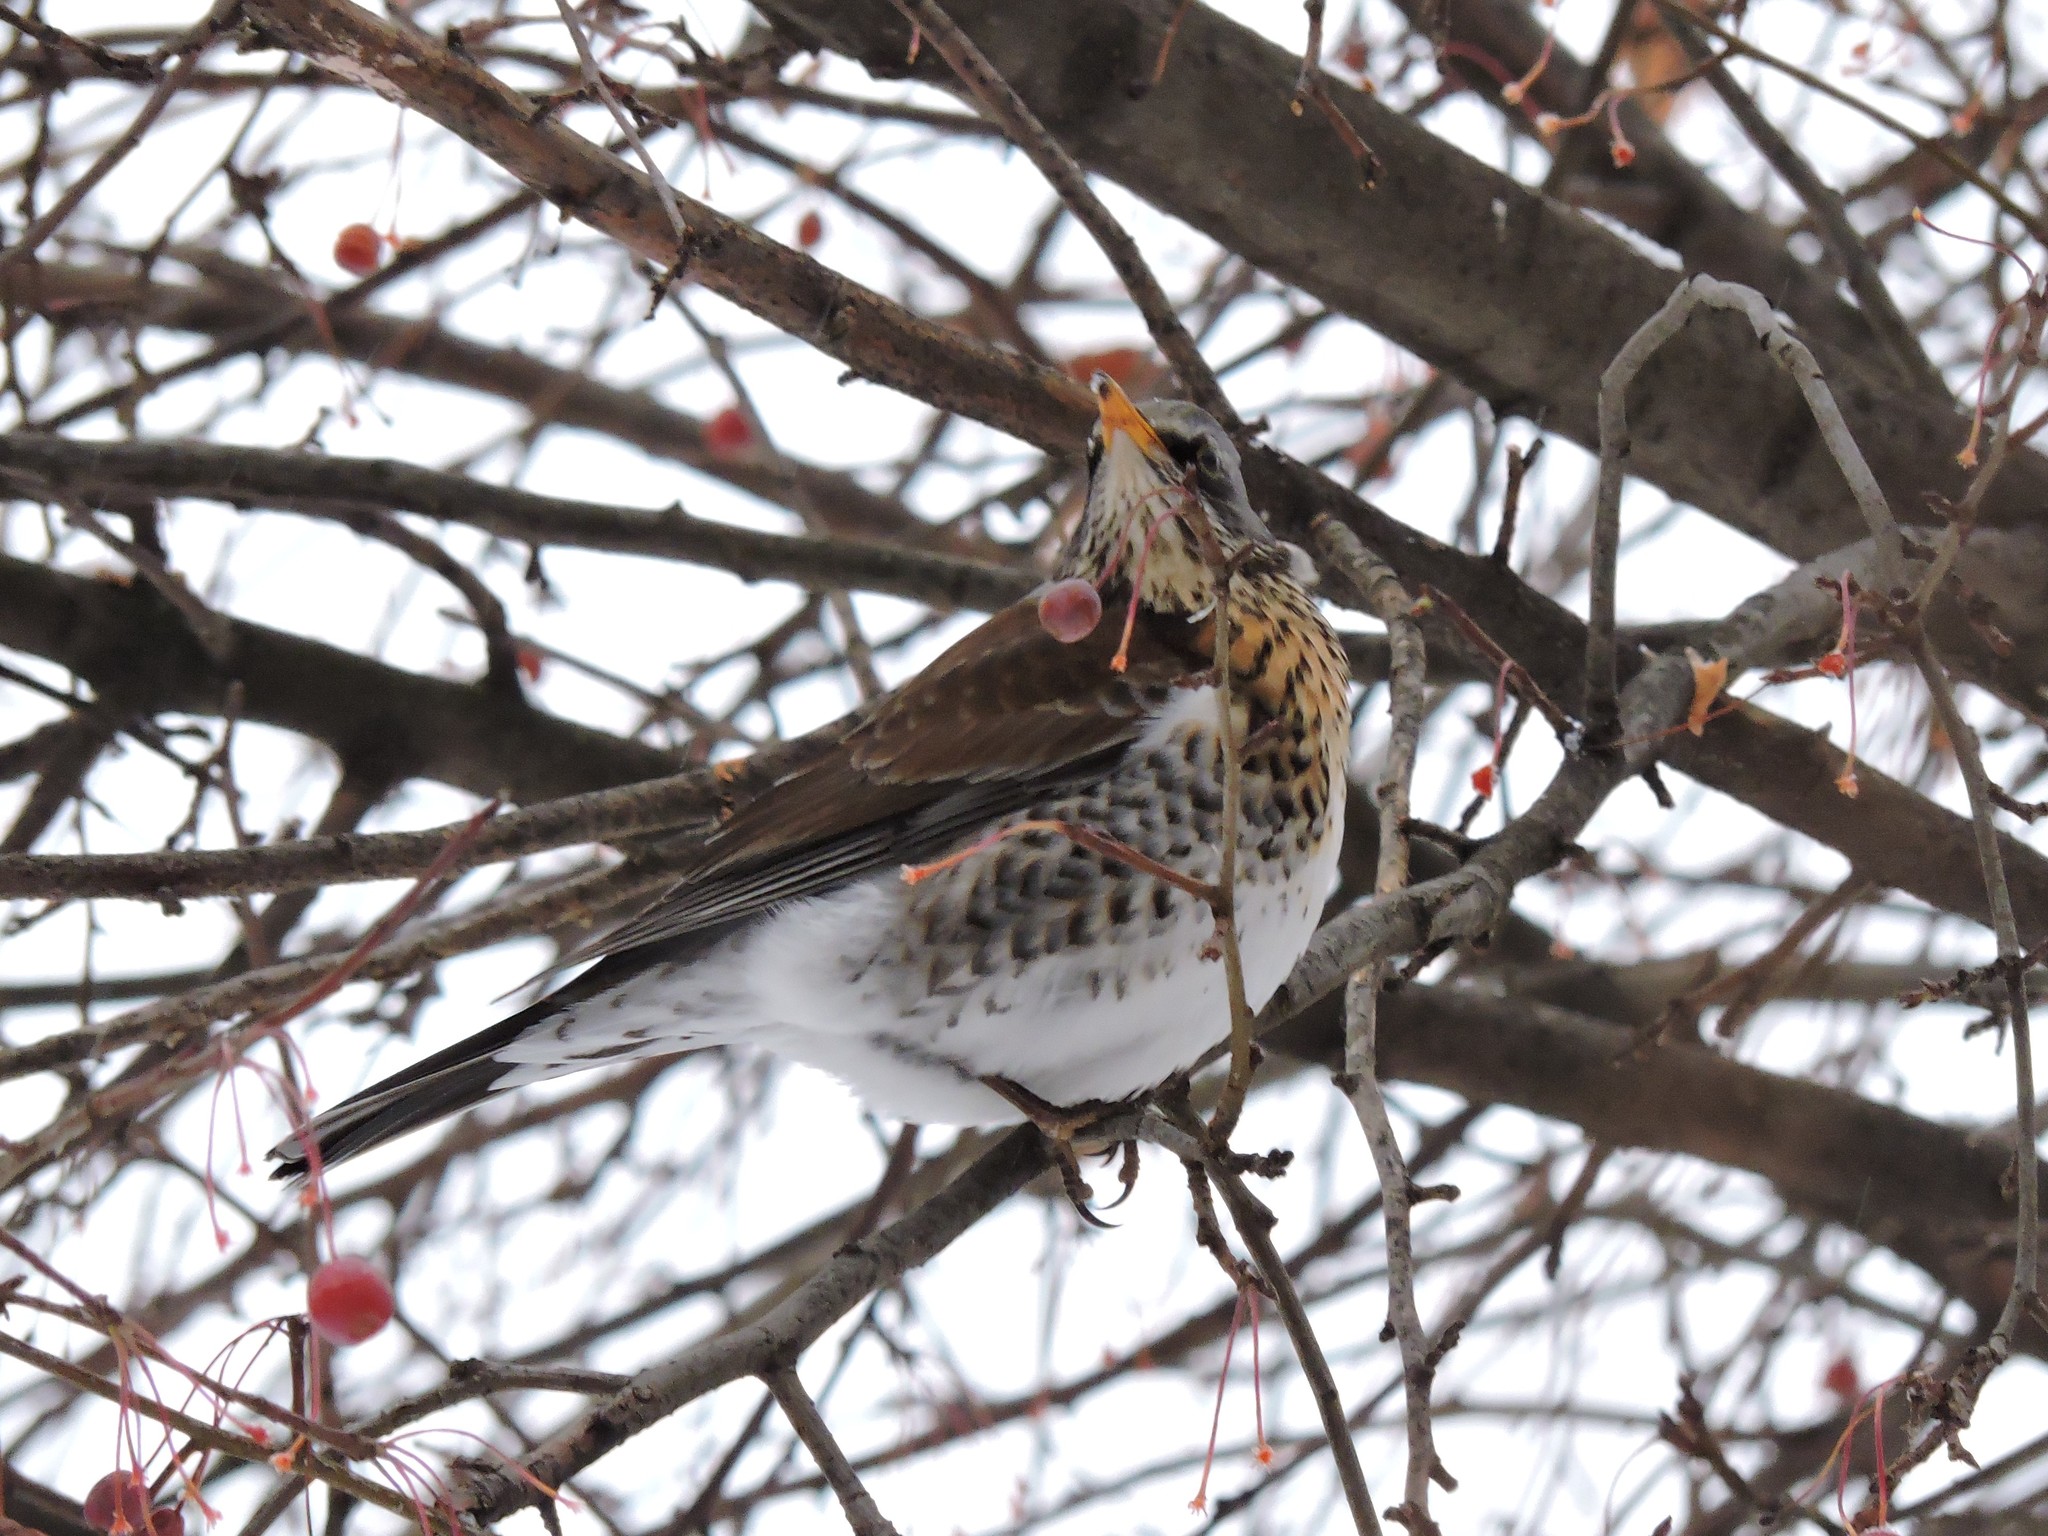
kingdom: Animalia
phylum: Chordata
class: Aves
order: Passeriformes
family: Turdidae
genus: Turdus
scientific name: Turdus pilaris
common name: Fieldfare
